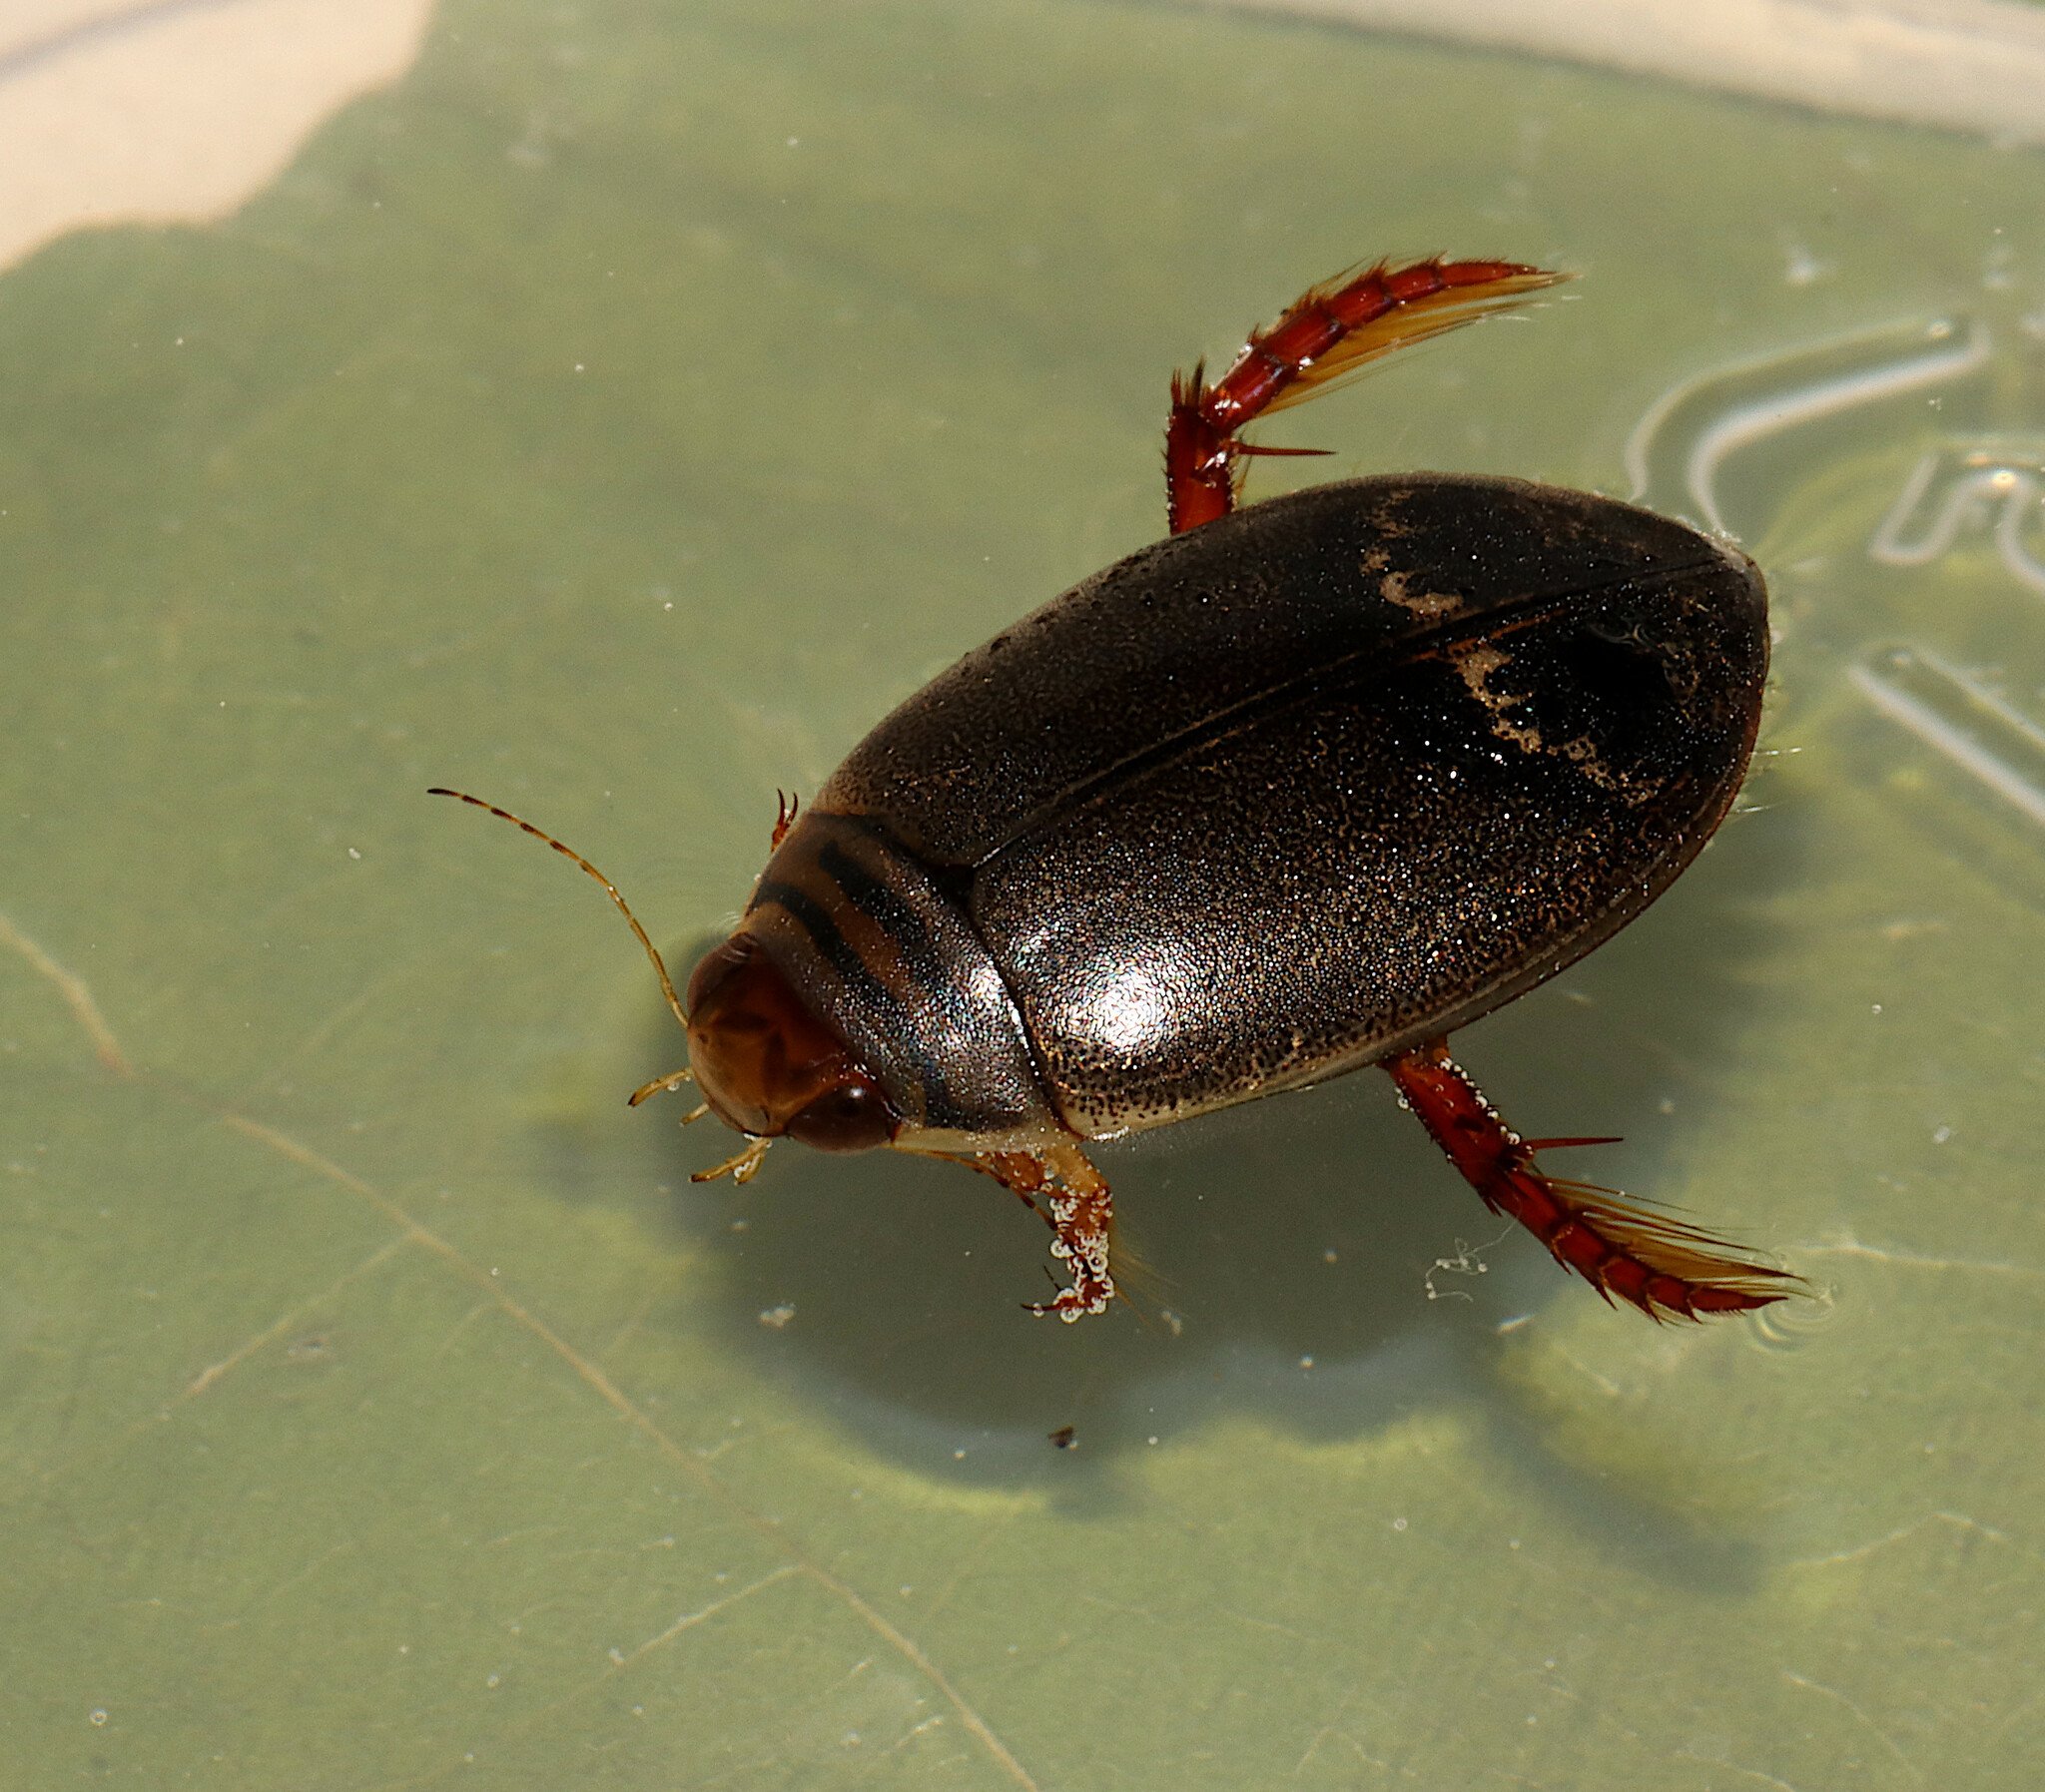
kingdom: Animalia
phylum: Arthropoda
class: Insecta
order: Coleoptera
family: Dytiscidae
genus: Acilius
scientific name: Acilius fraternus
